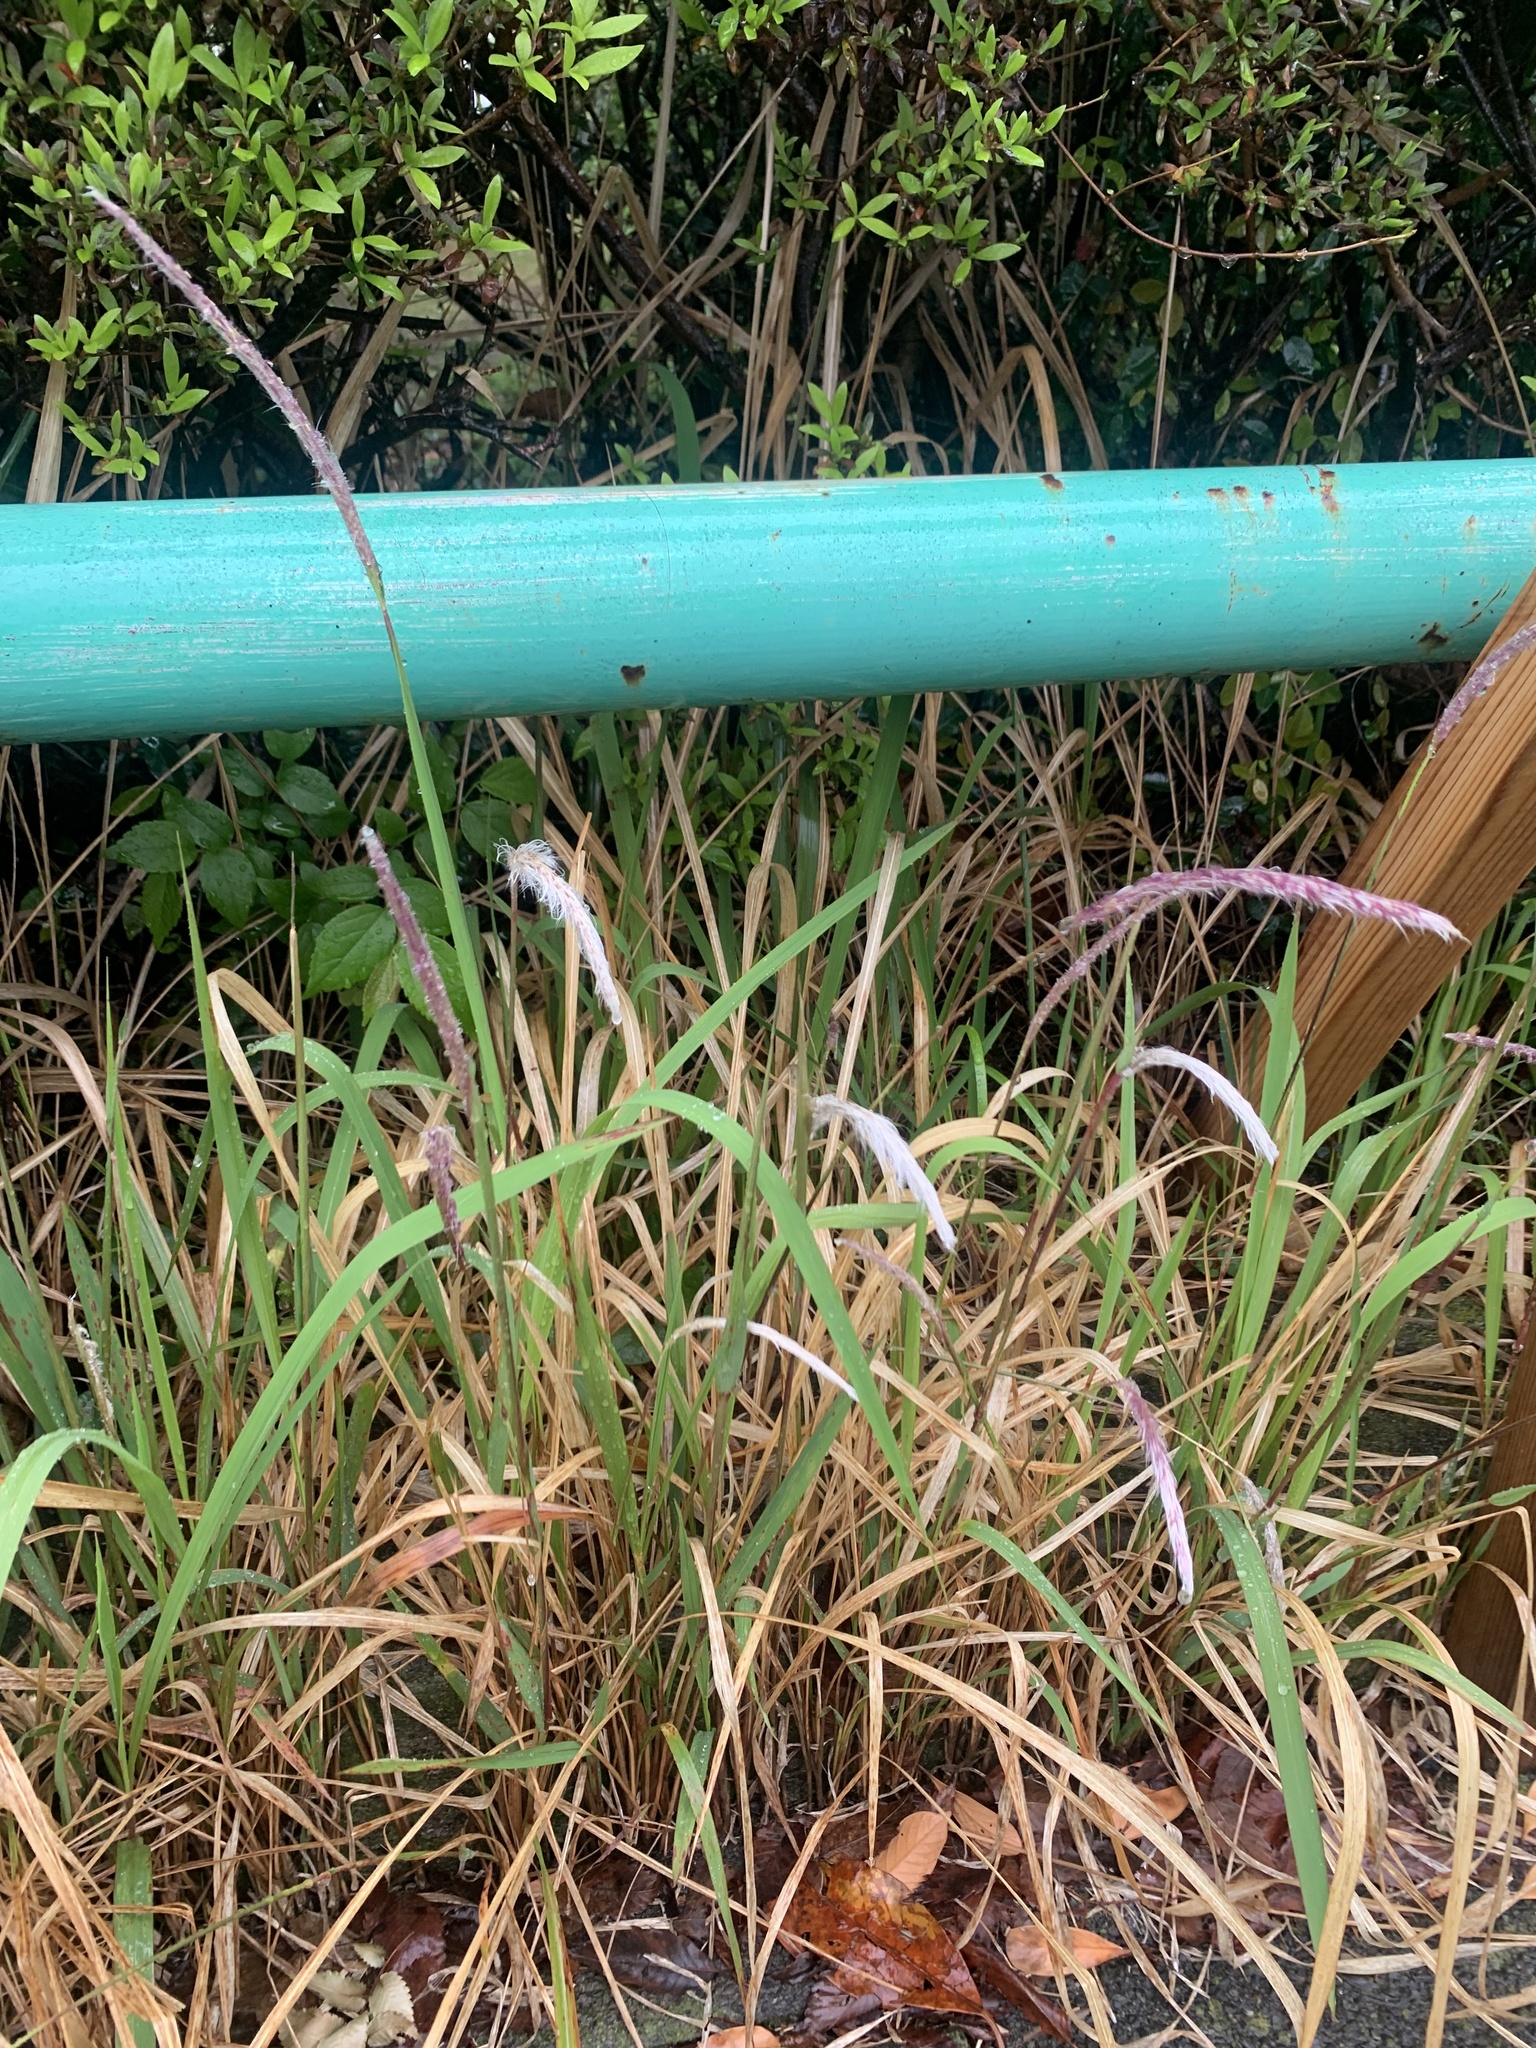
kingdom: Plantae
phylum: Tracheophyta
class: Liliopsida
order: Poales
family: Poaceae
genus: Imperata
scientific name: Imperata cylindrica
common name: Cogongrass
